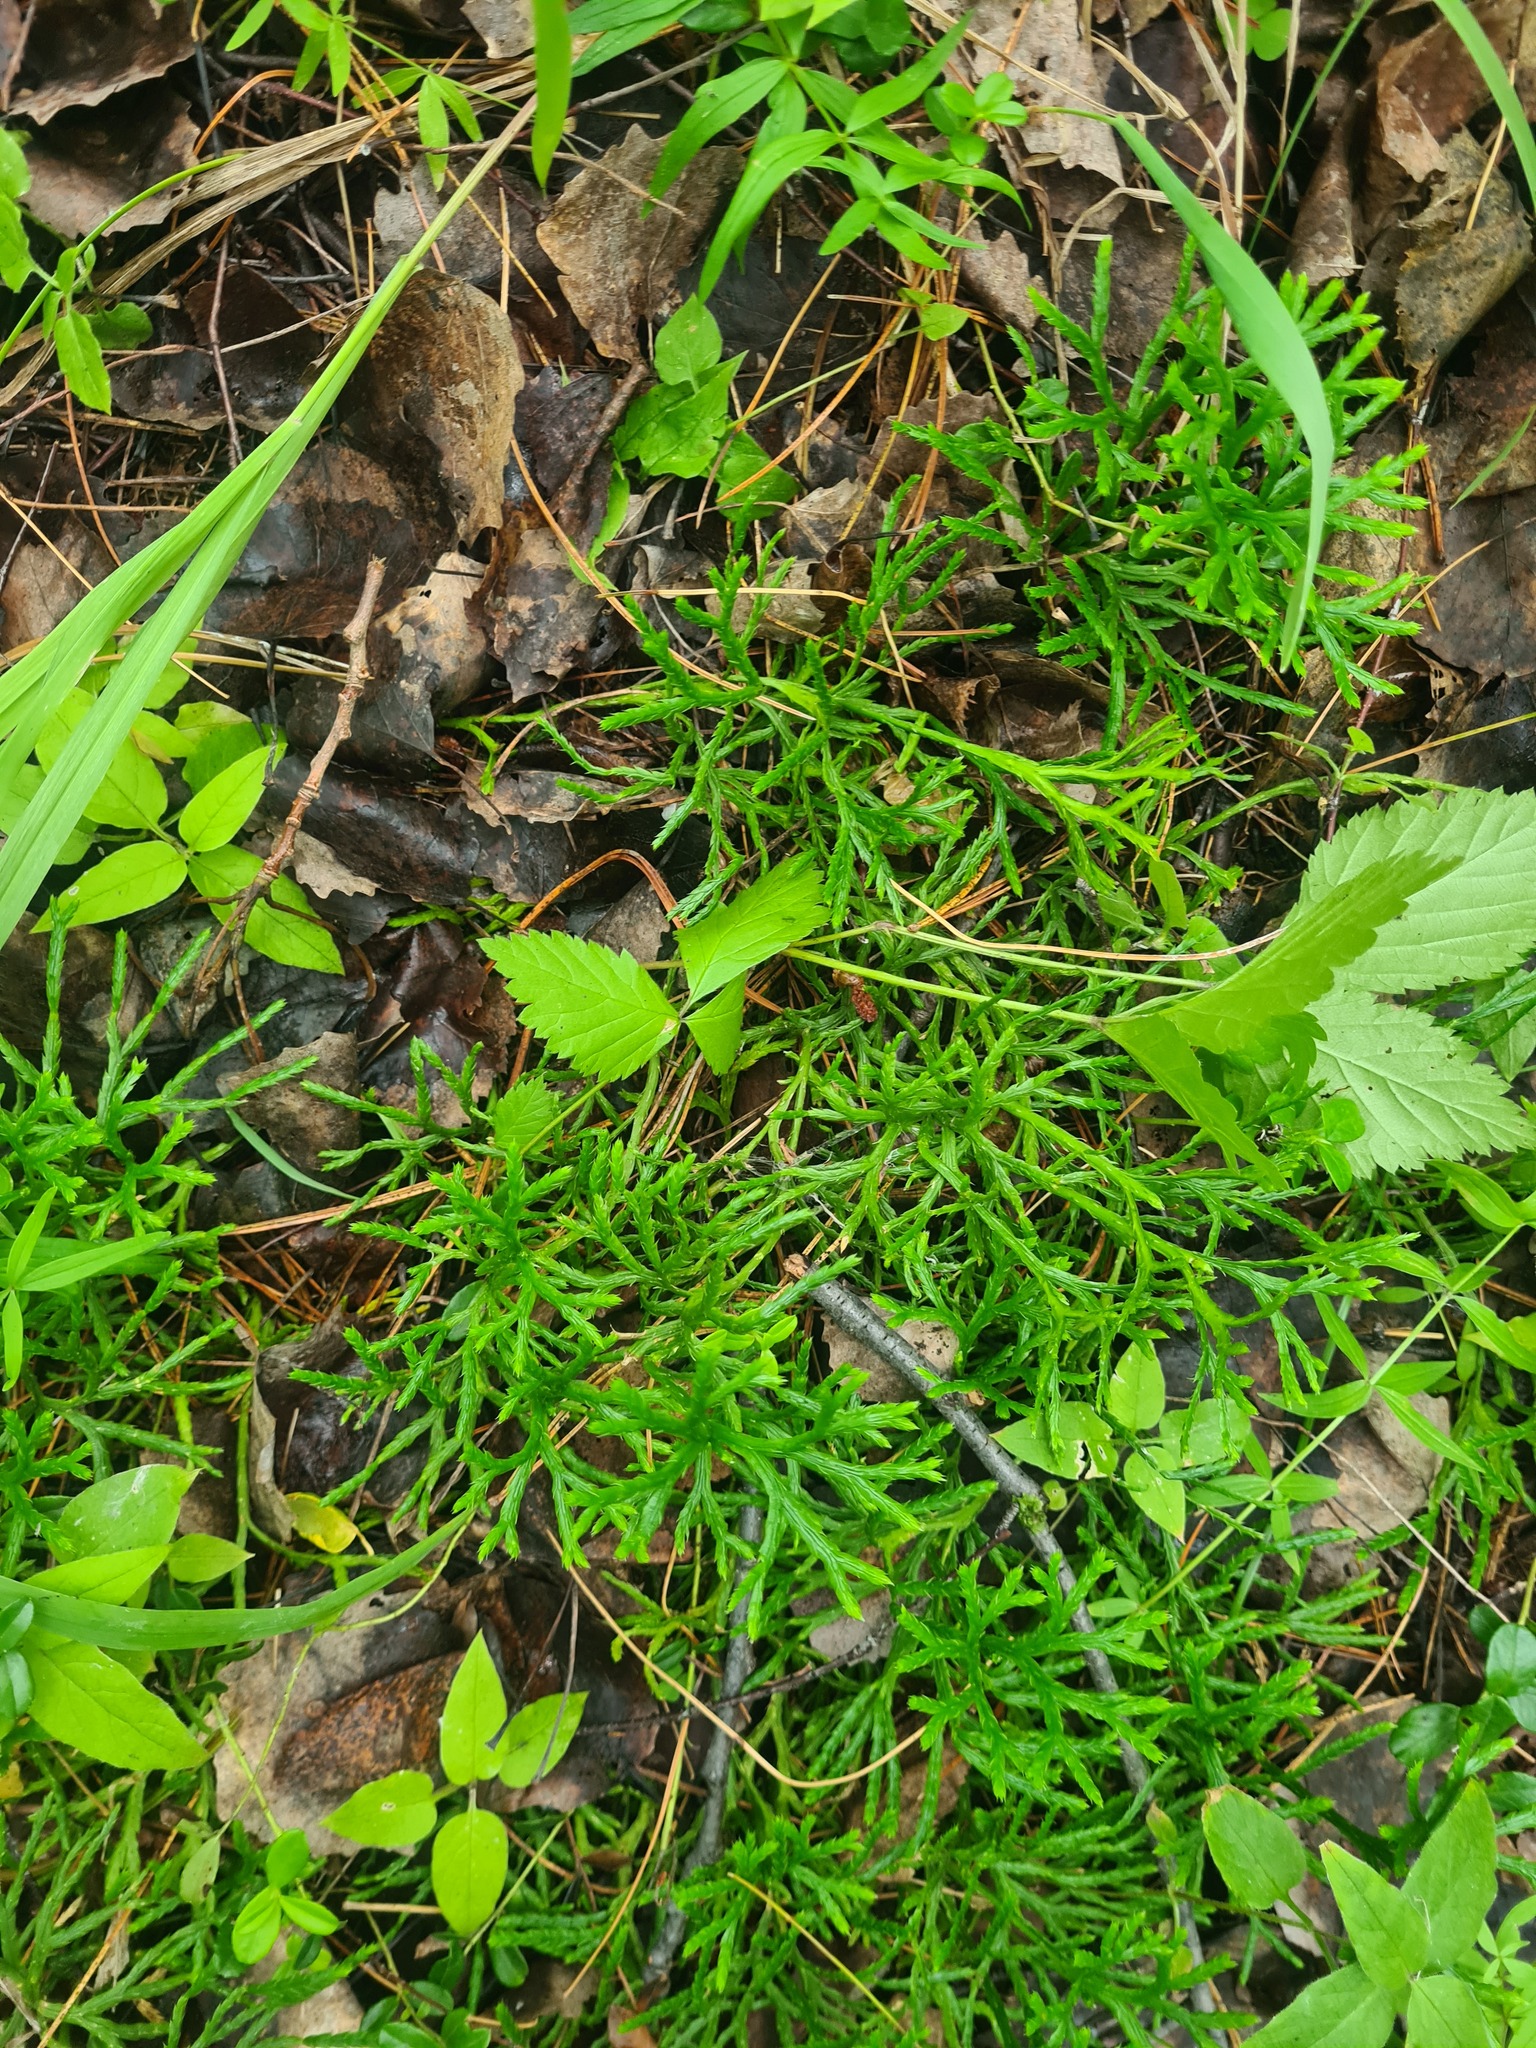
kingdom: Plantae
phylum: Tracheophyta
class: Lycopodiopsida
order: Lycopodiales
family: Lycopodiaceae
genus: Diphasiastrum
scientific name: Diphasiastrum complanatum
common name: Northern running-pine
